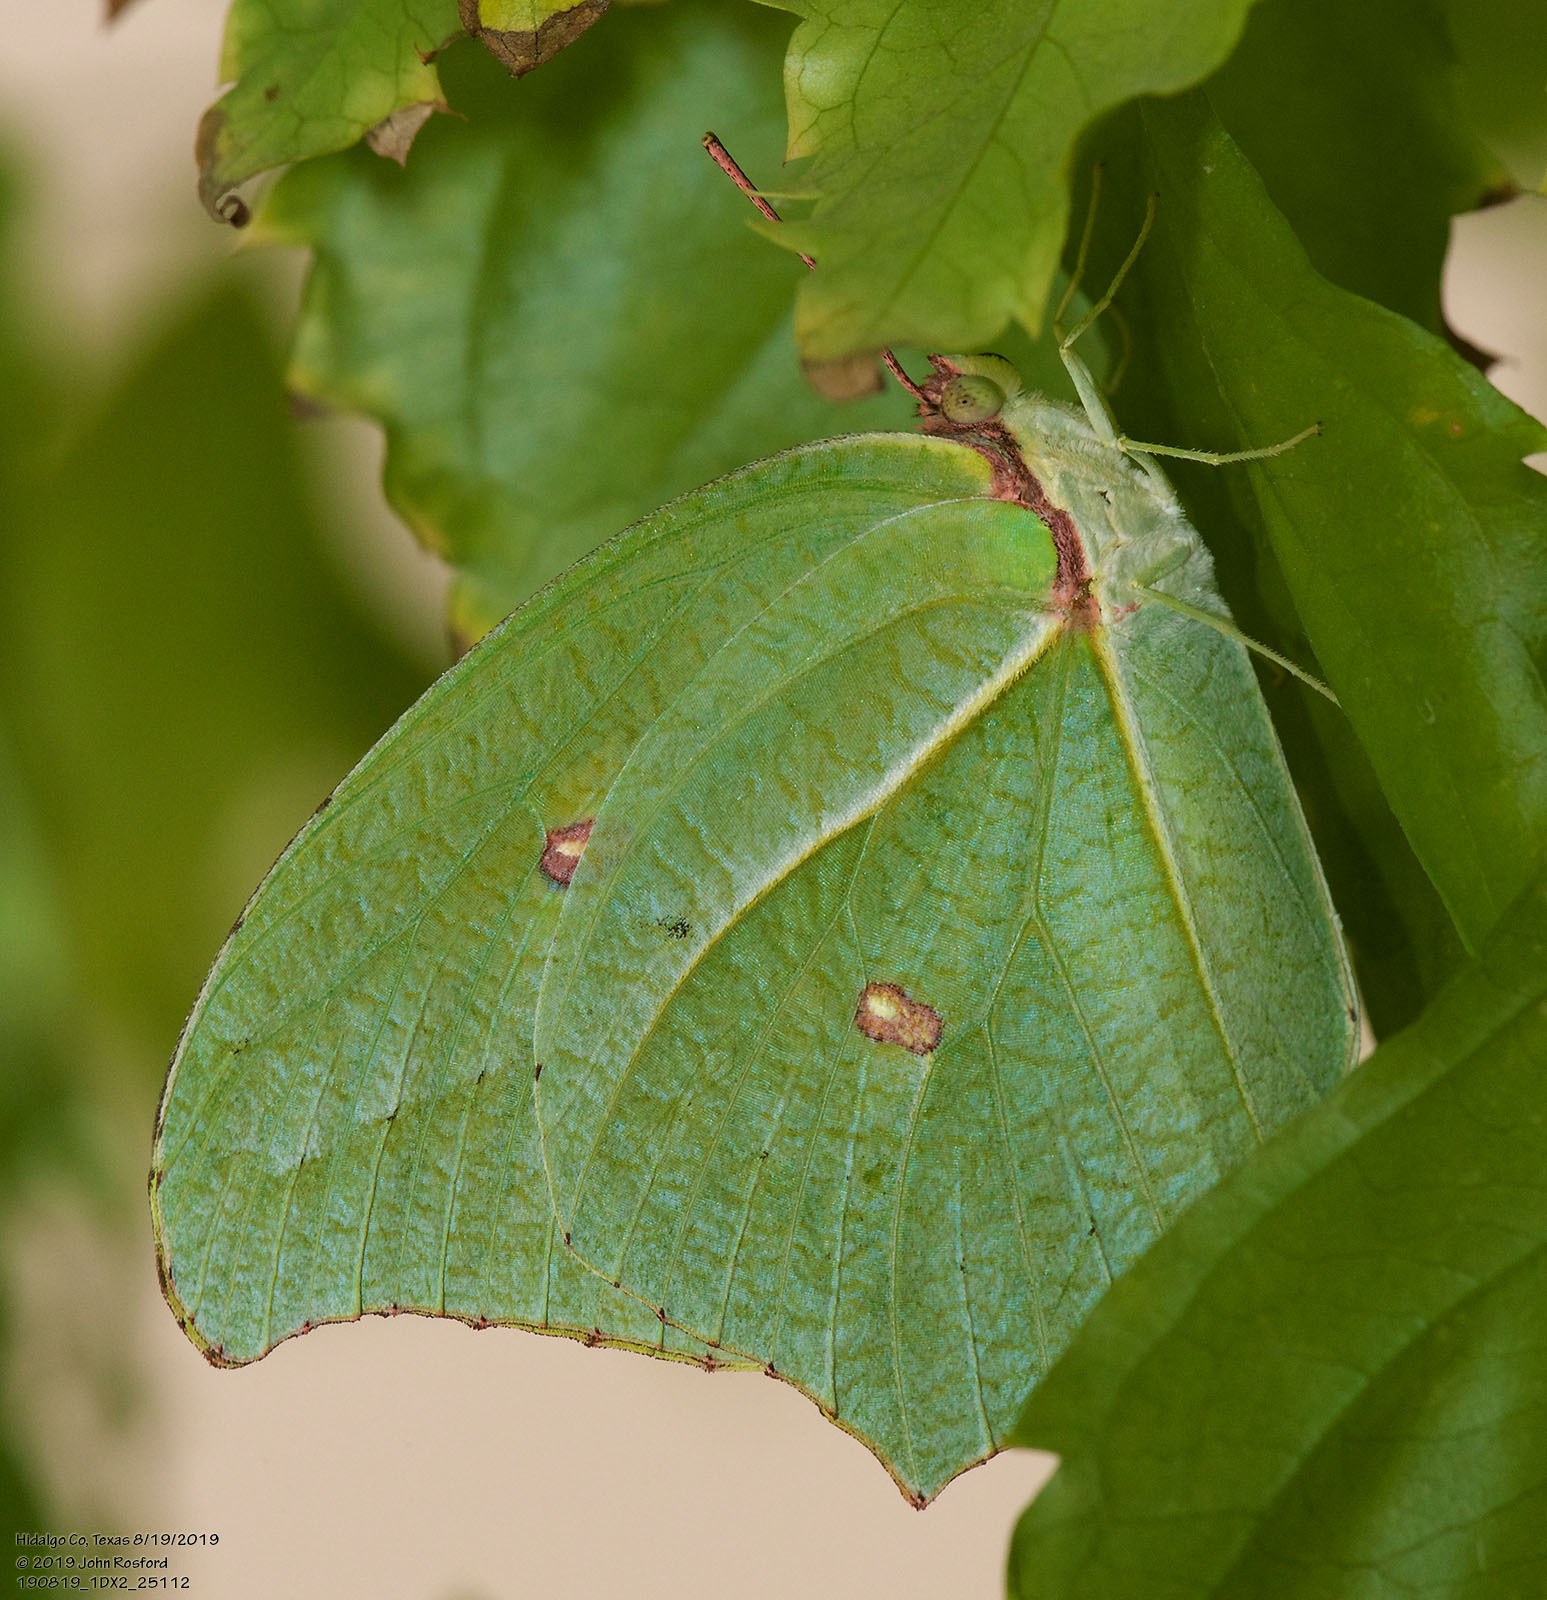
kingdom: Animalia
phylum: Arthropoda
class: Insecta
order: Lepidoptera
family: Pieridae
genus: Anteos
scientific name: Anteos maerula
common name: Angled sulphur
